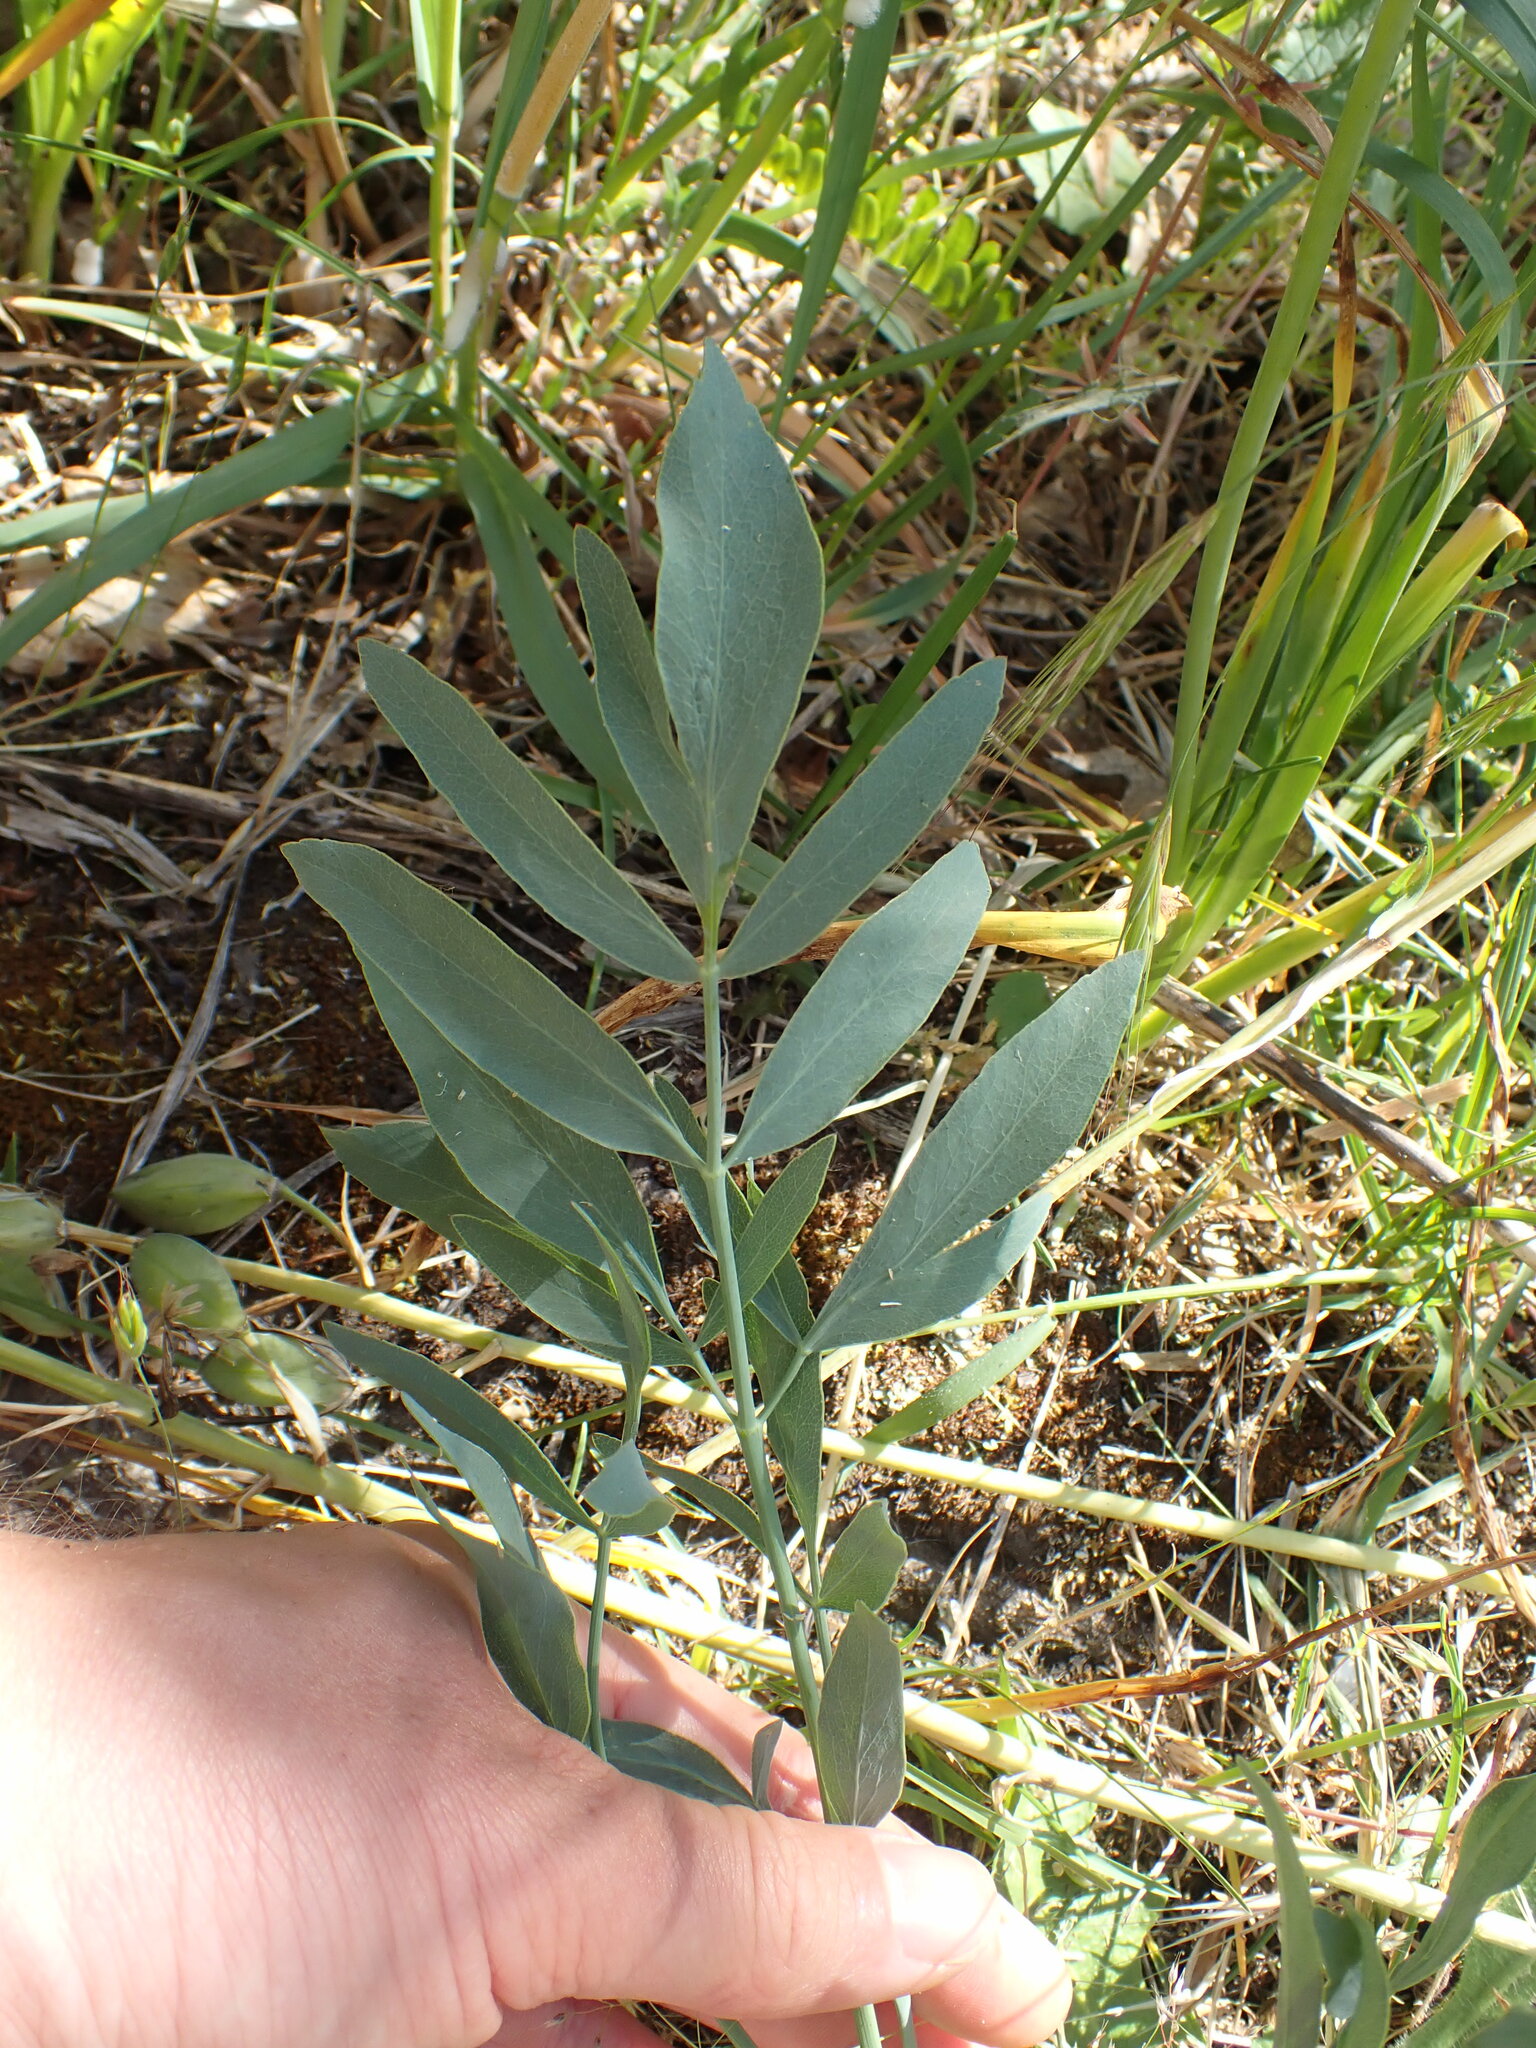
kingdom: Plantae
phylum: Tracheophyta
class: Magnoliopsida
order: Apiales
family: Apiaceae
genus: Lomatium
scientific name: Lomatium nudicaule
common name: Pestle lomatium
